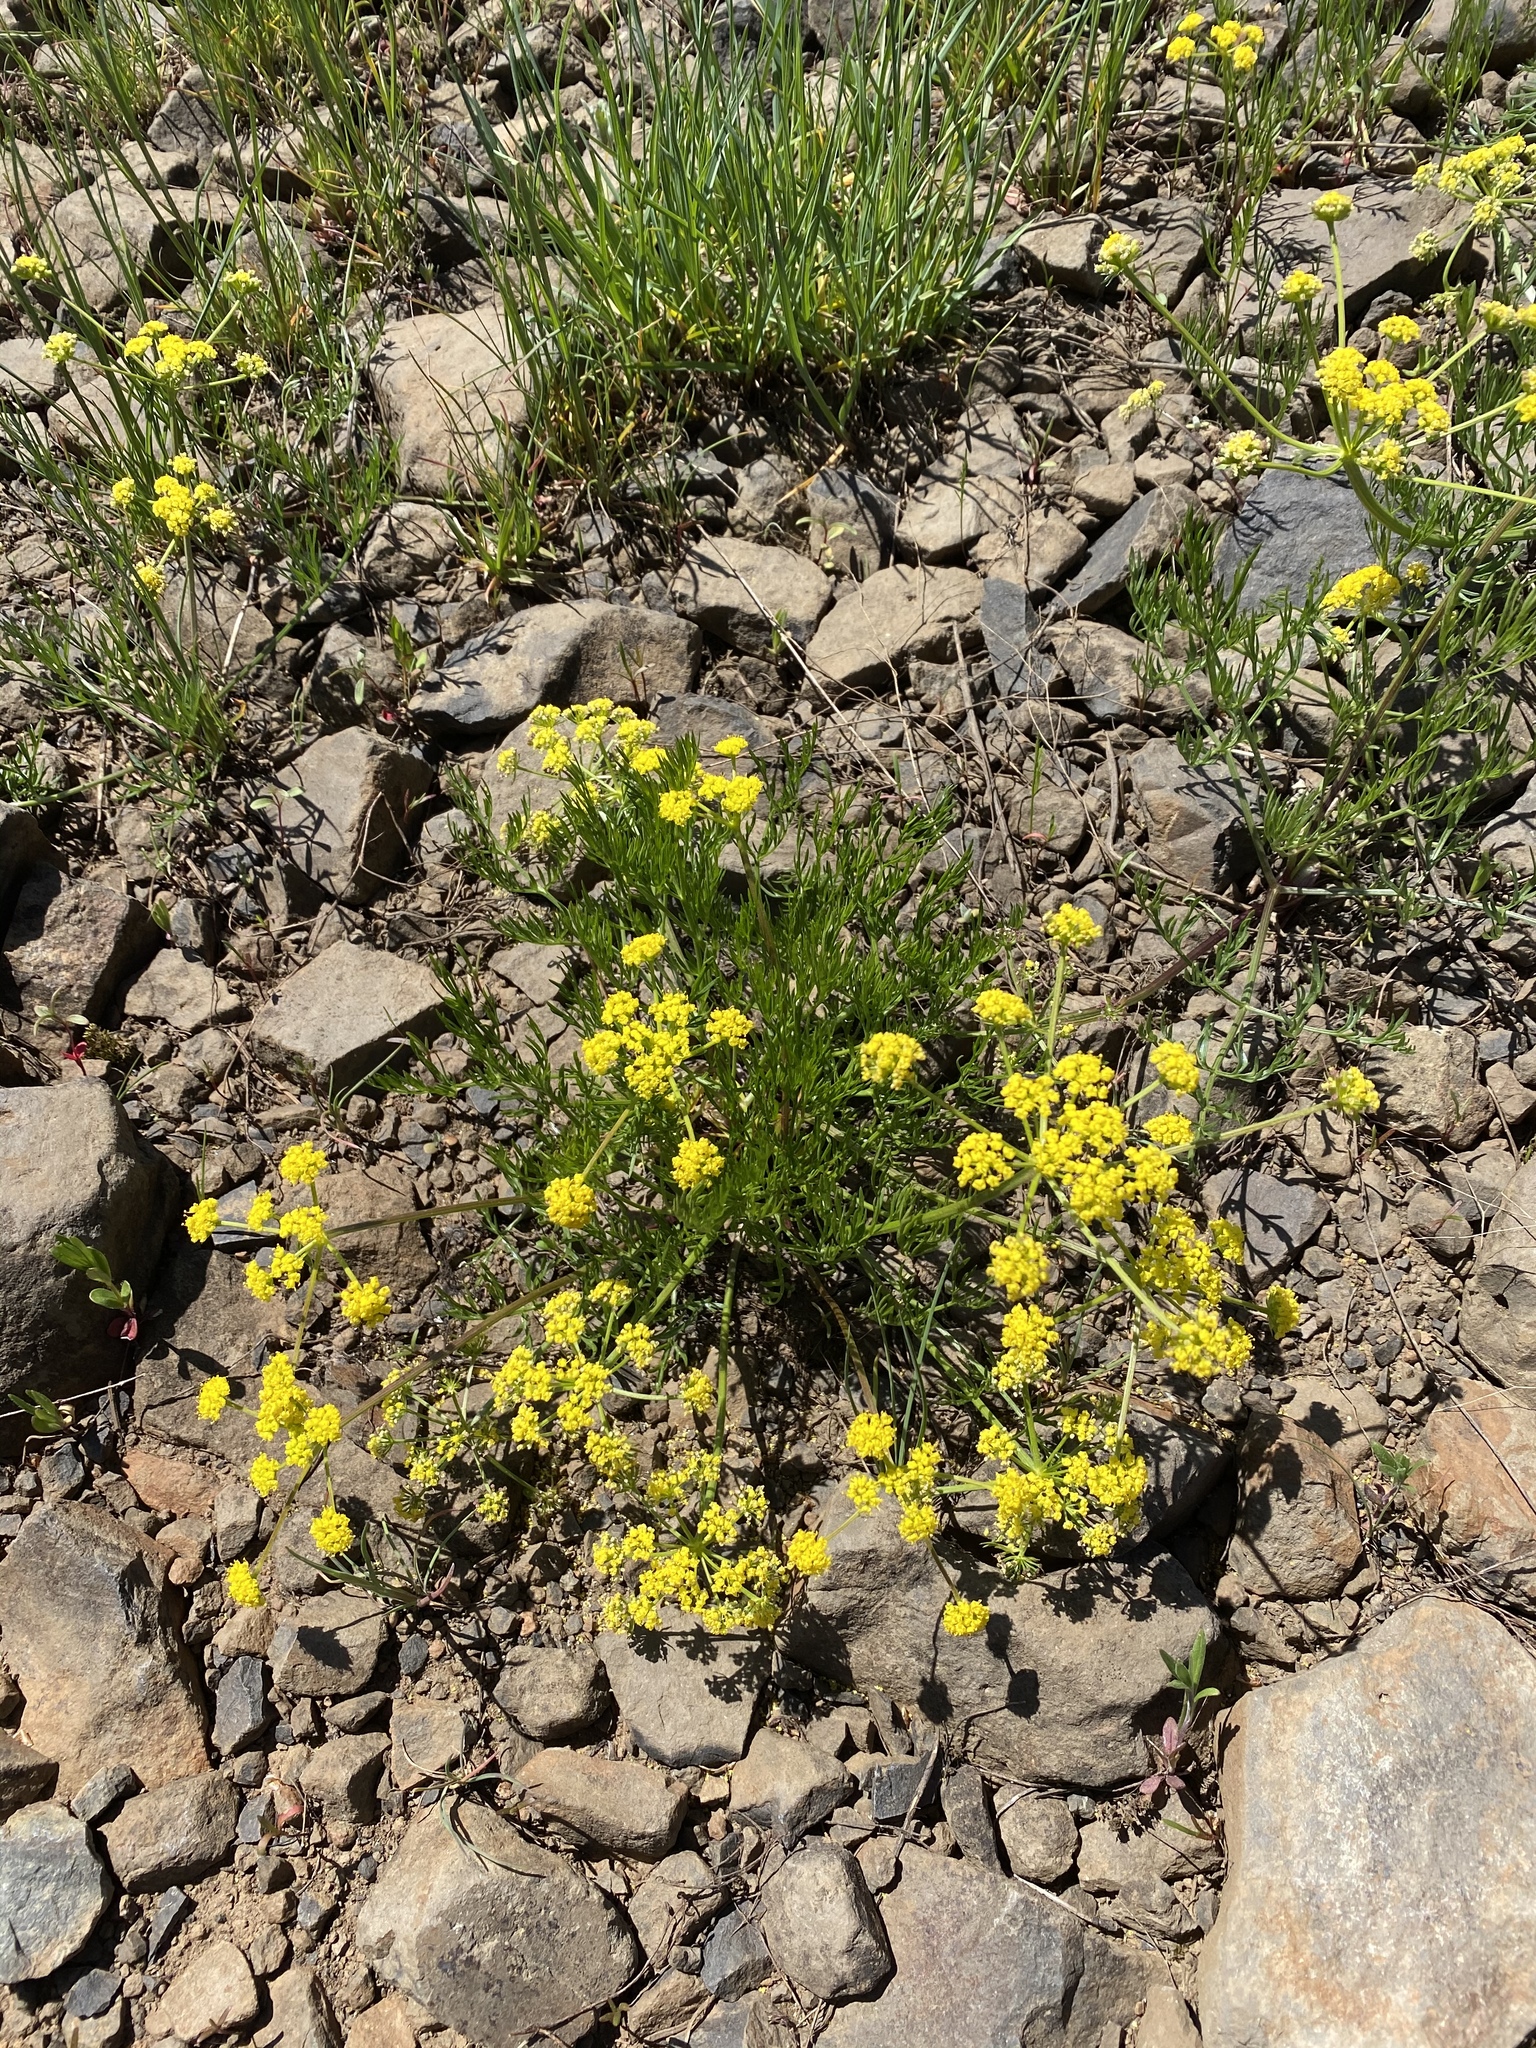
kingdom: Plantae
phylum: Tracheophyta
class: Magnoliopsida
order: Apiales
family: Apiaceae
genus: Lomatium
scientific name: Lomatium bicolor
